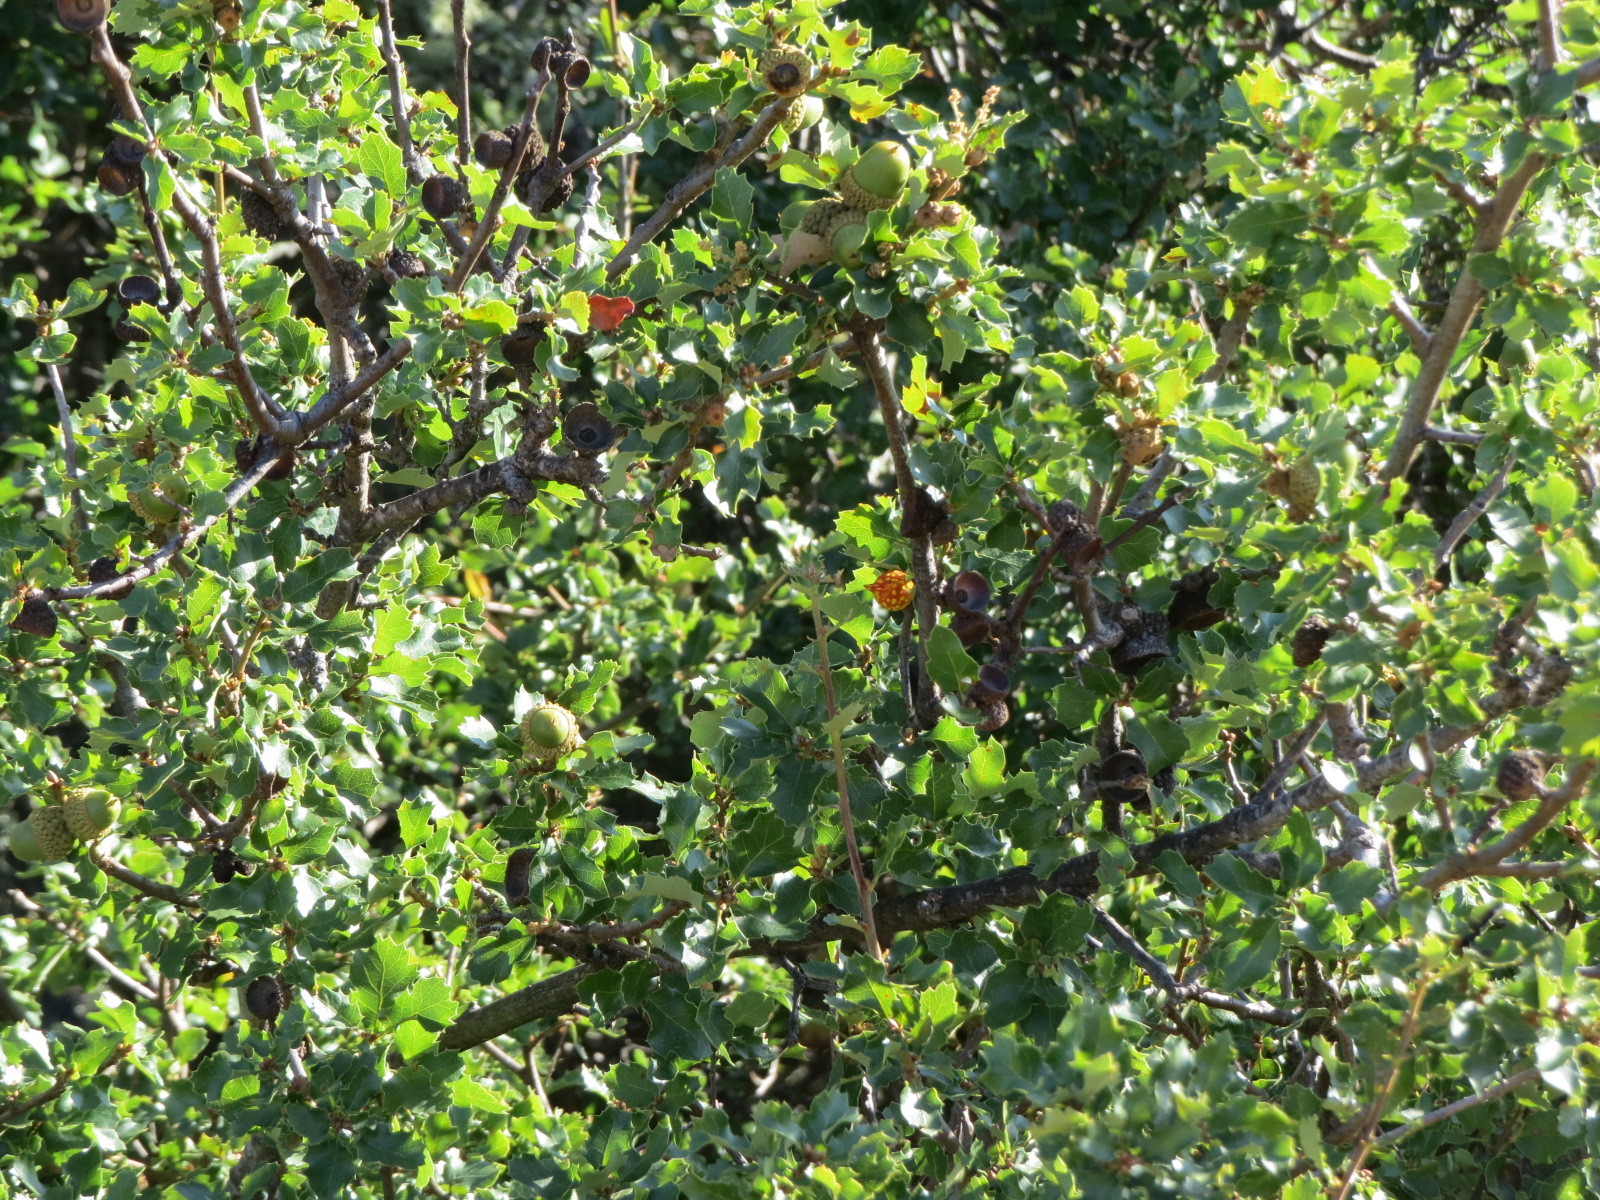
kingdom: Animalia
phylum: Arthropoda
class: Insecta
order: Hymenoptera
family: Cynipidae
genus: Burnettweldia
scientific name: Burnettweldia
